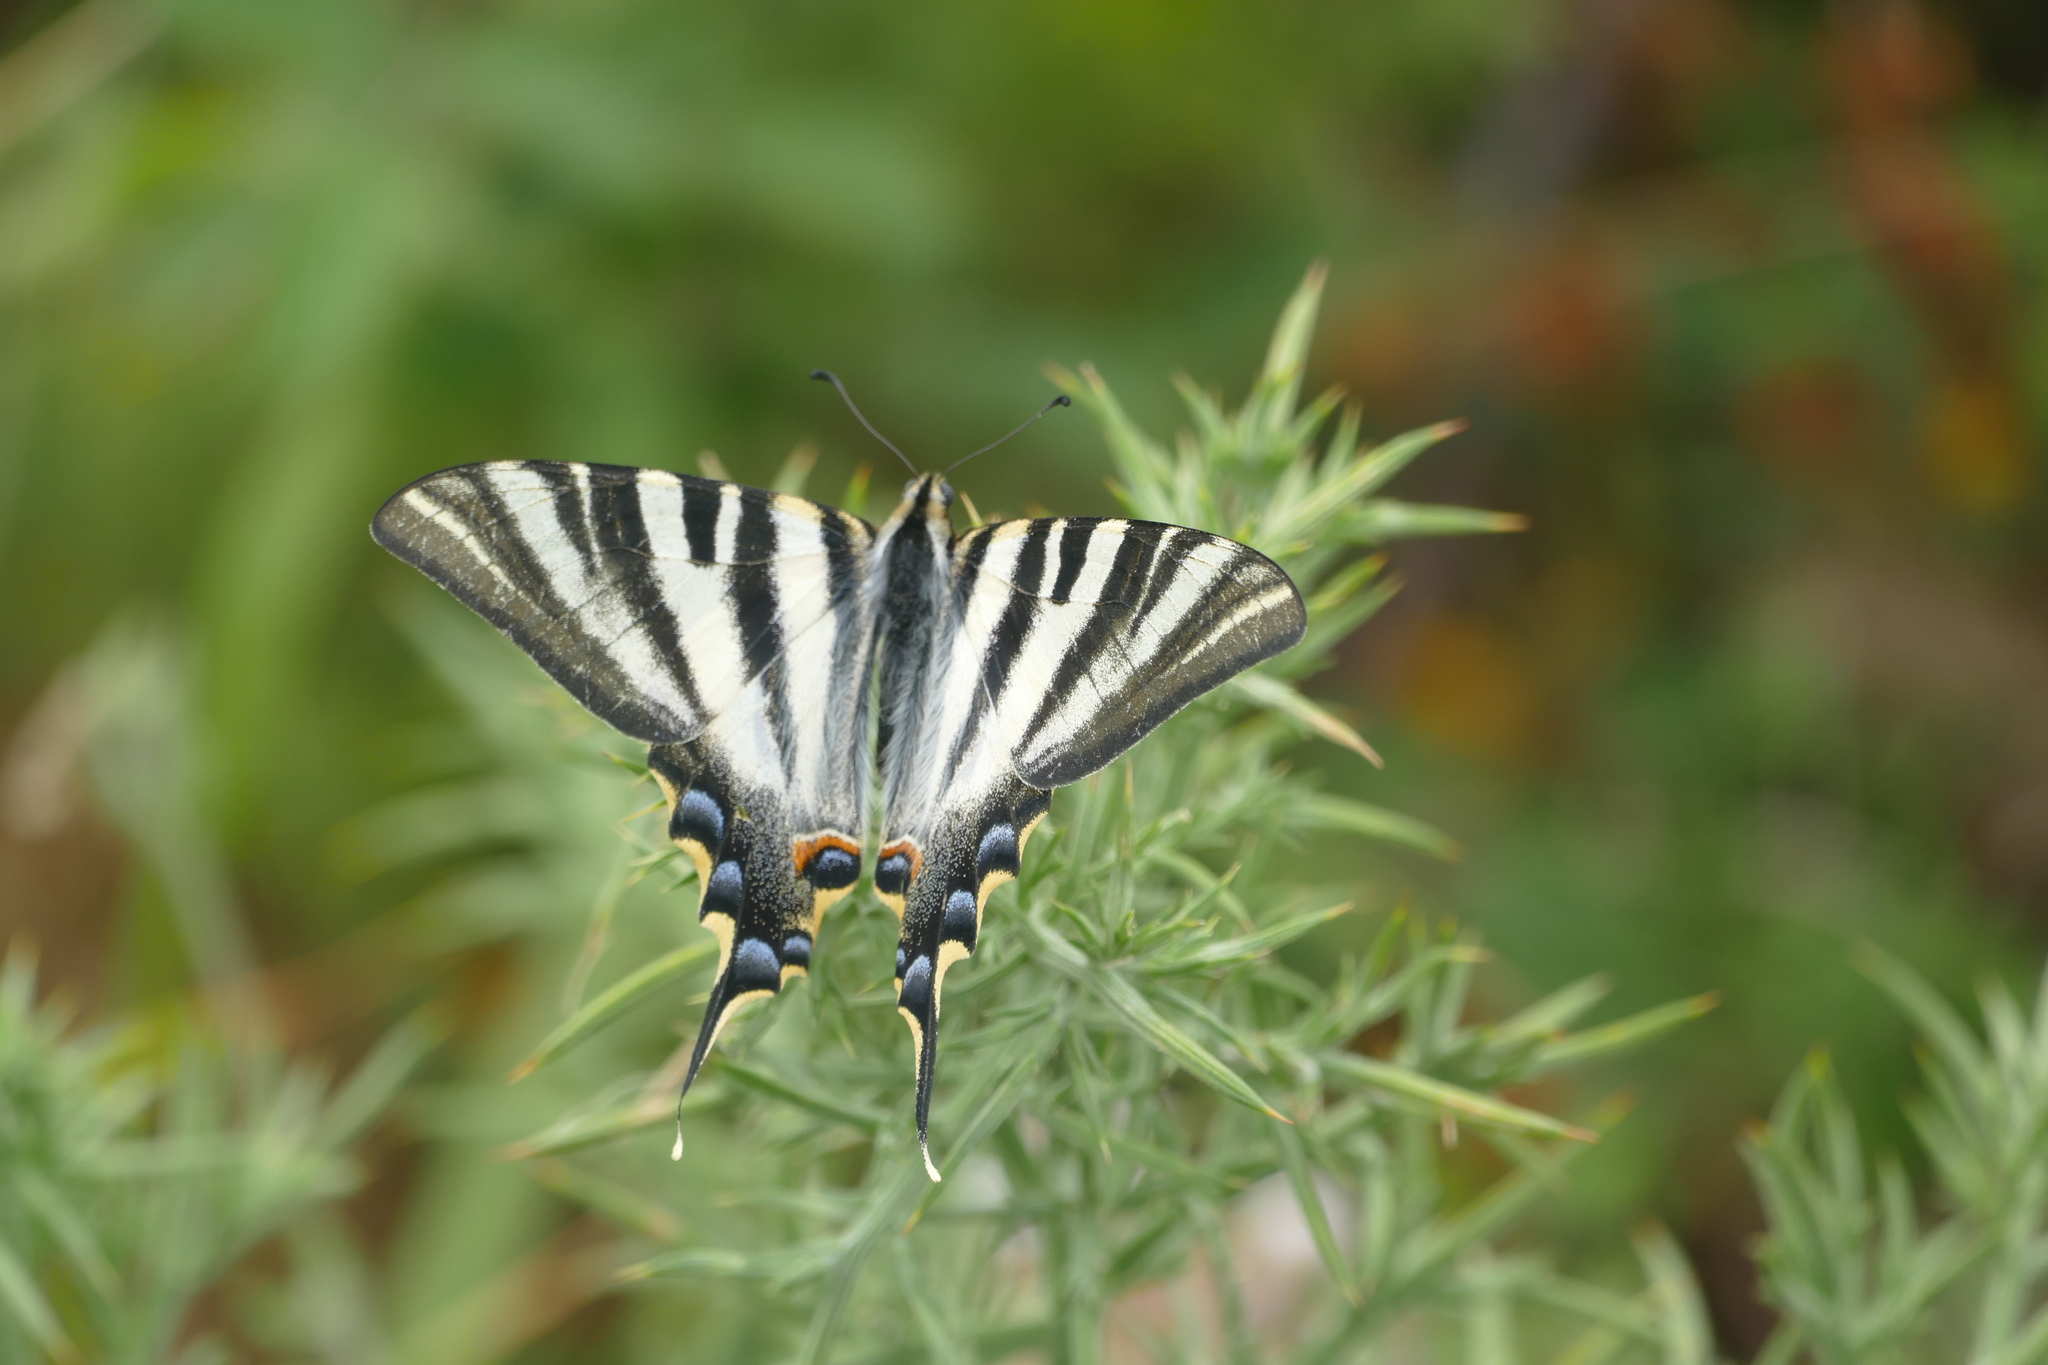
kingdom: Animalia
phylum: Arthropoda
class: Insecta
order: Lepidoptera
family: Papilionidae
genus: Iphiclides
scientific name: Iphiclides feisthamelii
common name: Iberian scarce swallowtail
